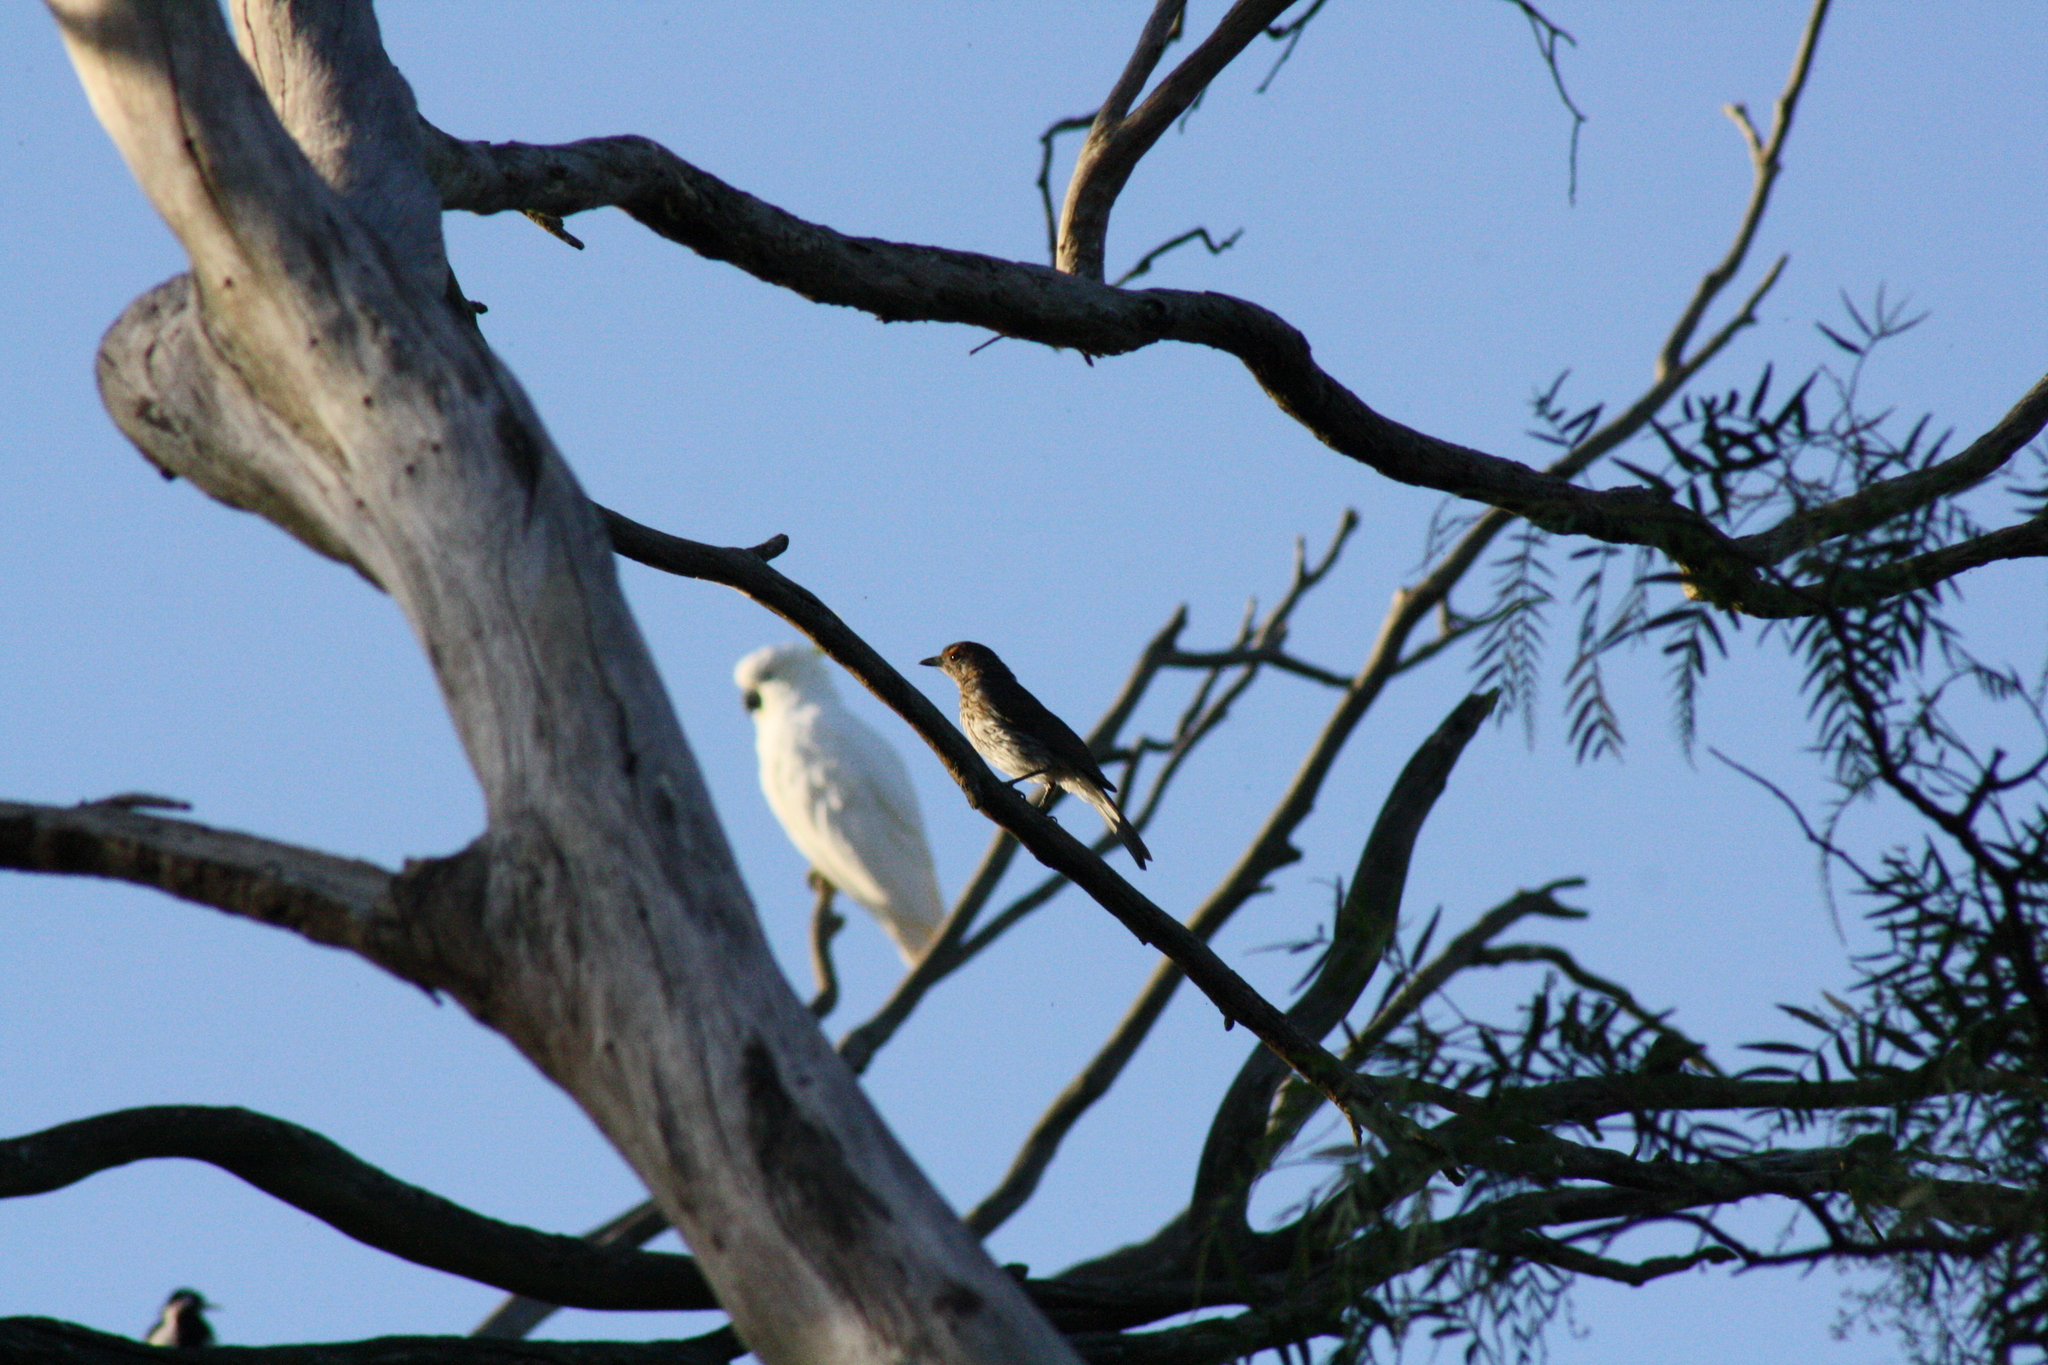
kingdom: Animalia
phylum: Chordata
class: Aves
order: Passeriformes
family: Pachycephalidae
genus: Colluricincla
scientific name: Colluricincla harmonica
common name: Grey shrikethrush
